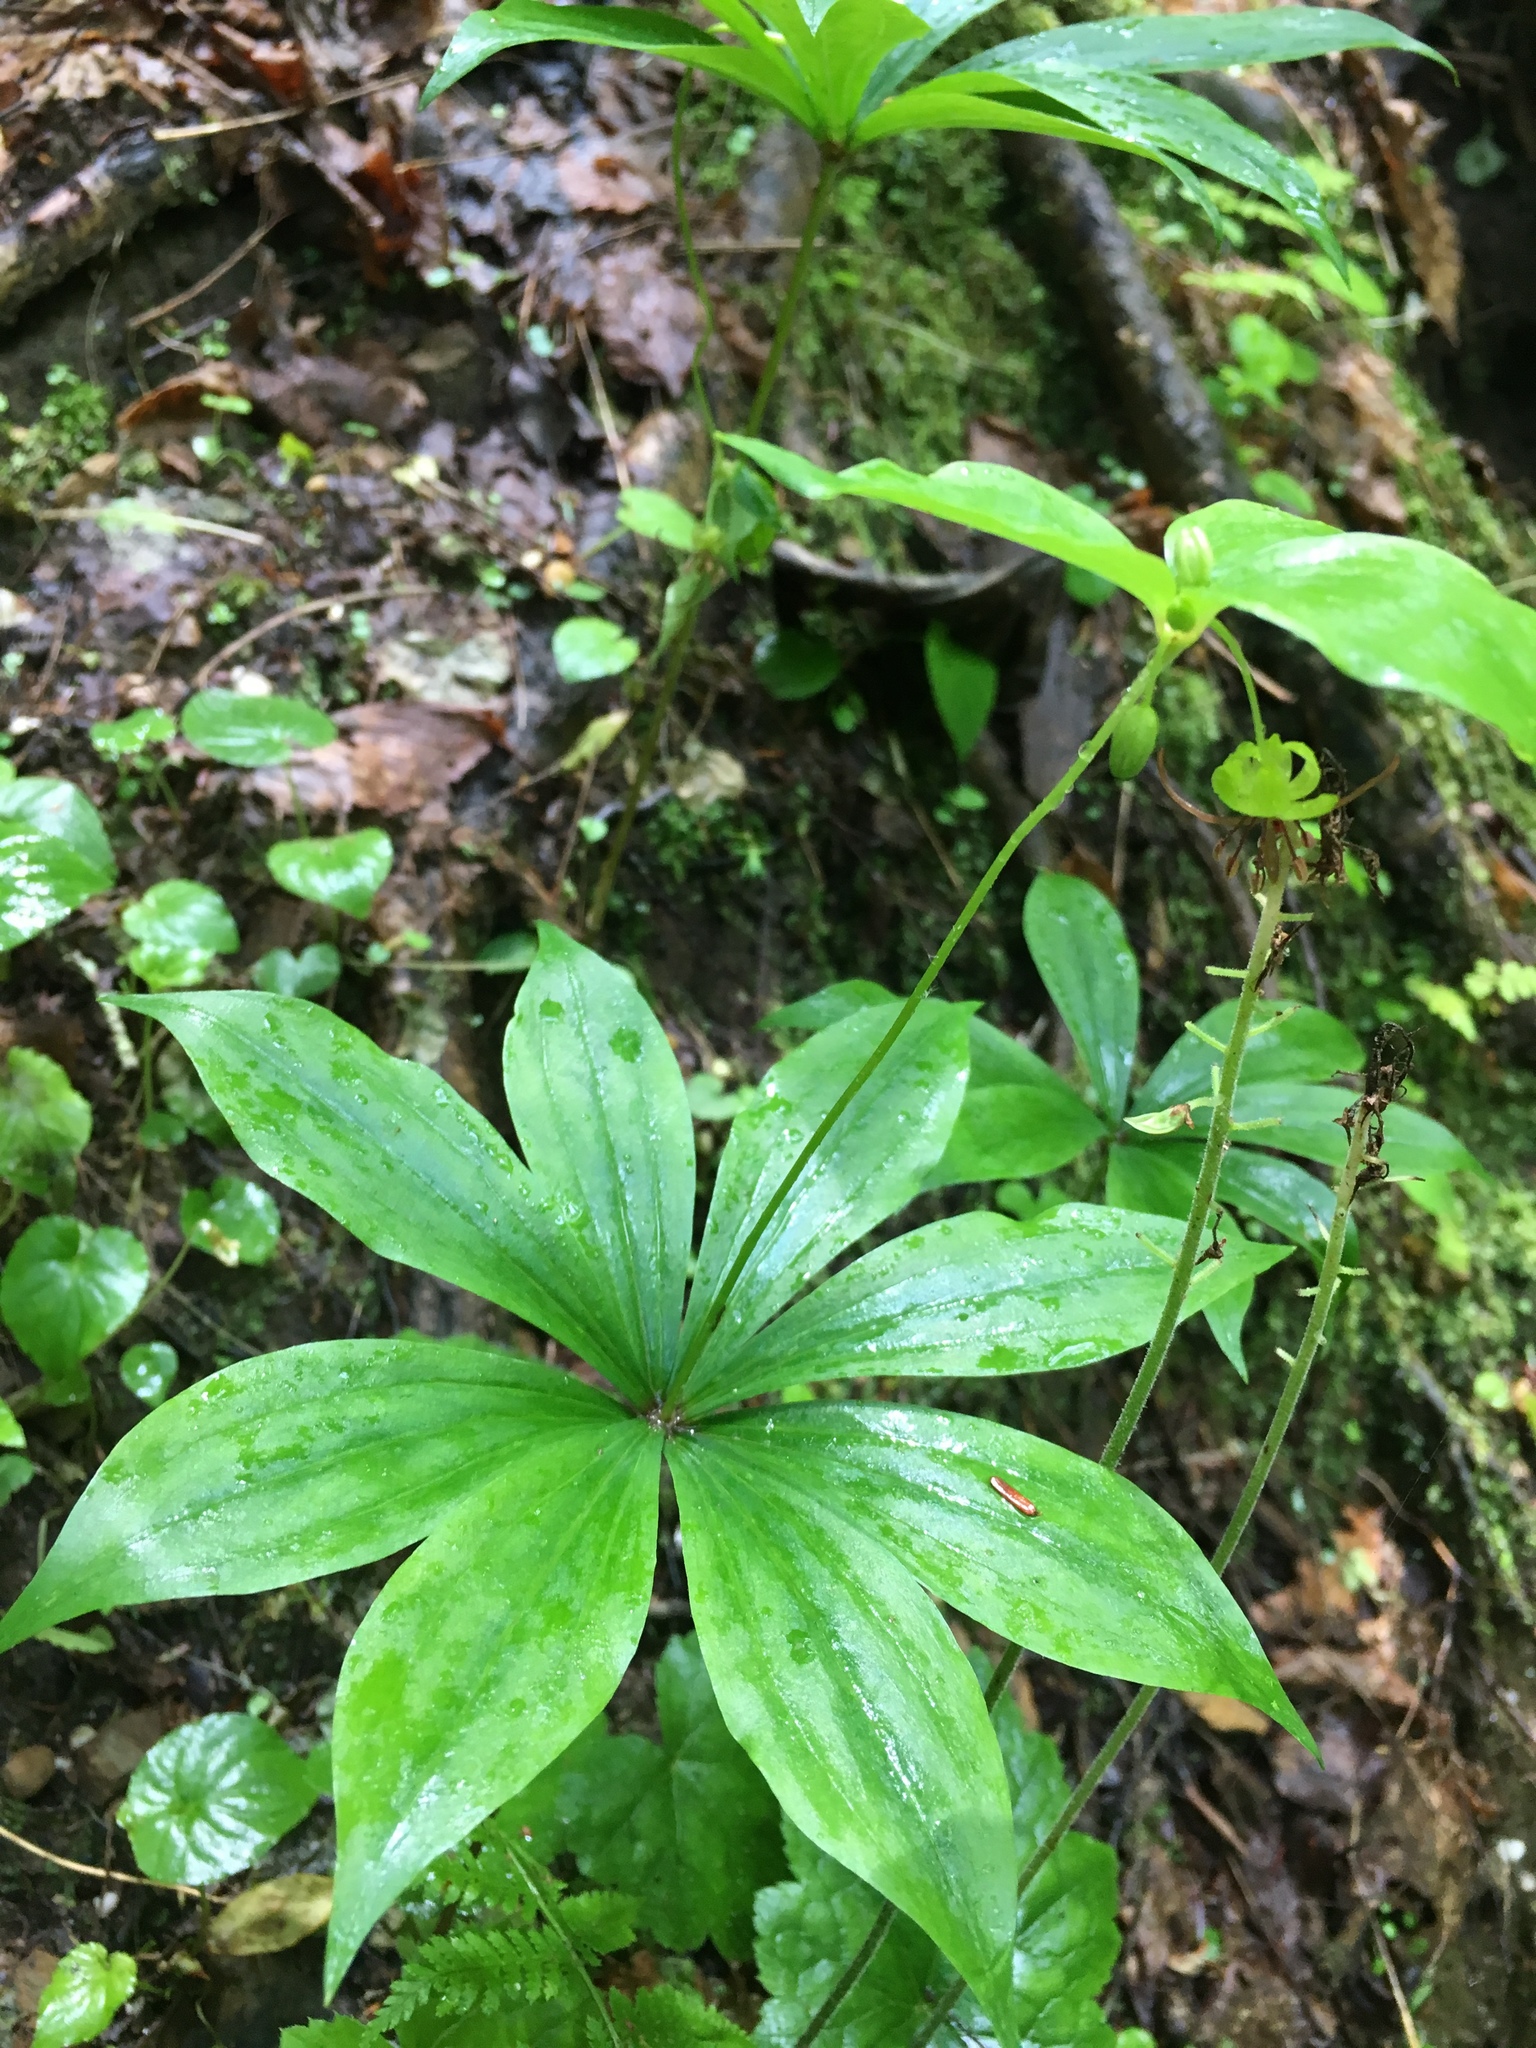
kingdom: Plantae
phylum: Tracheophyta
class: Liliopsida
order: Liliales
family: Liliaceae
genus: Medeola
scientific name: Medeola virginiana
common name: Indian cucumber-root
